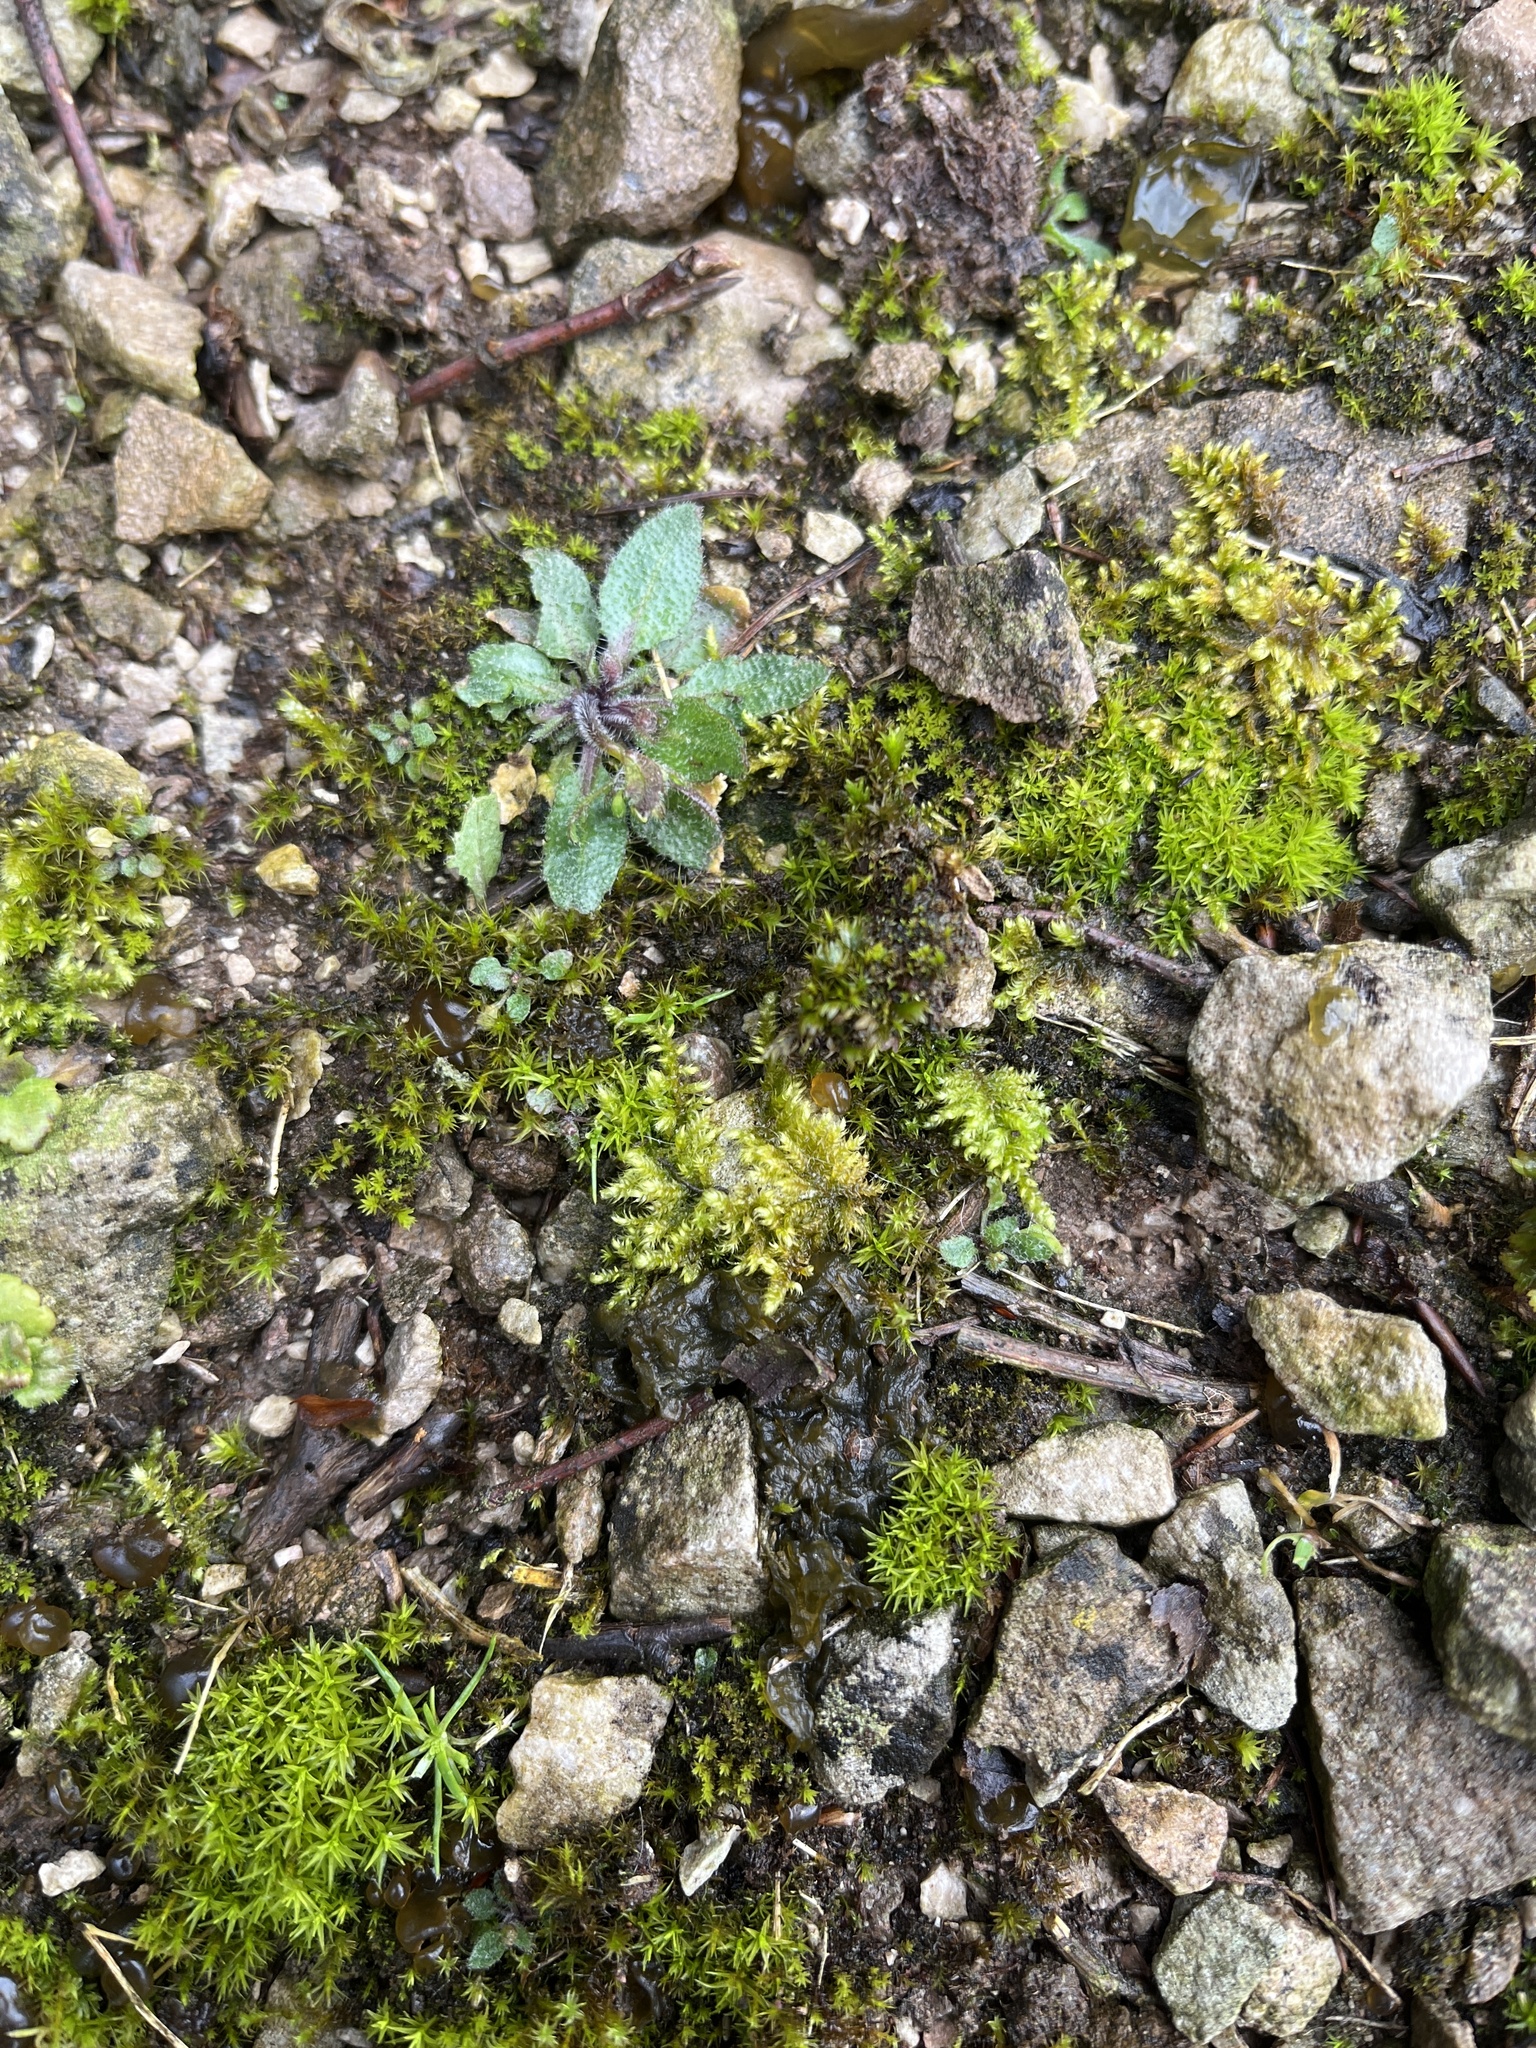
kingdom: Plantae
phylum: Bryophyta
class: Bryopsida
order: Hypnales
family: Myuriaceae
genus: Ctenidium
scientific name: Ctenidium molluscum
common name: Chalk comb-moss
